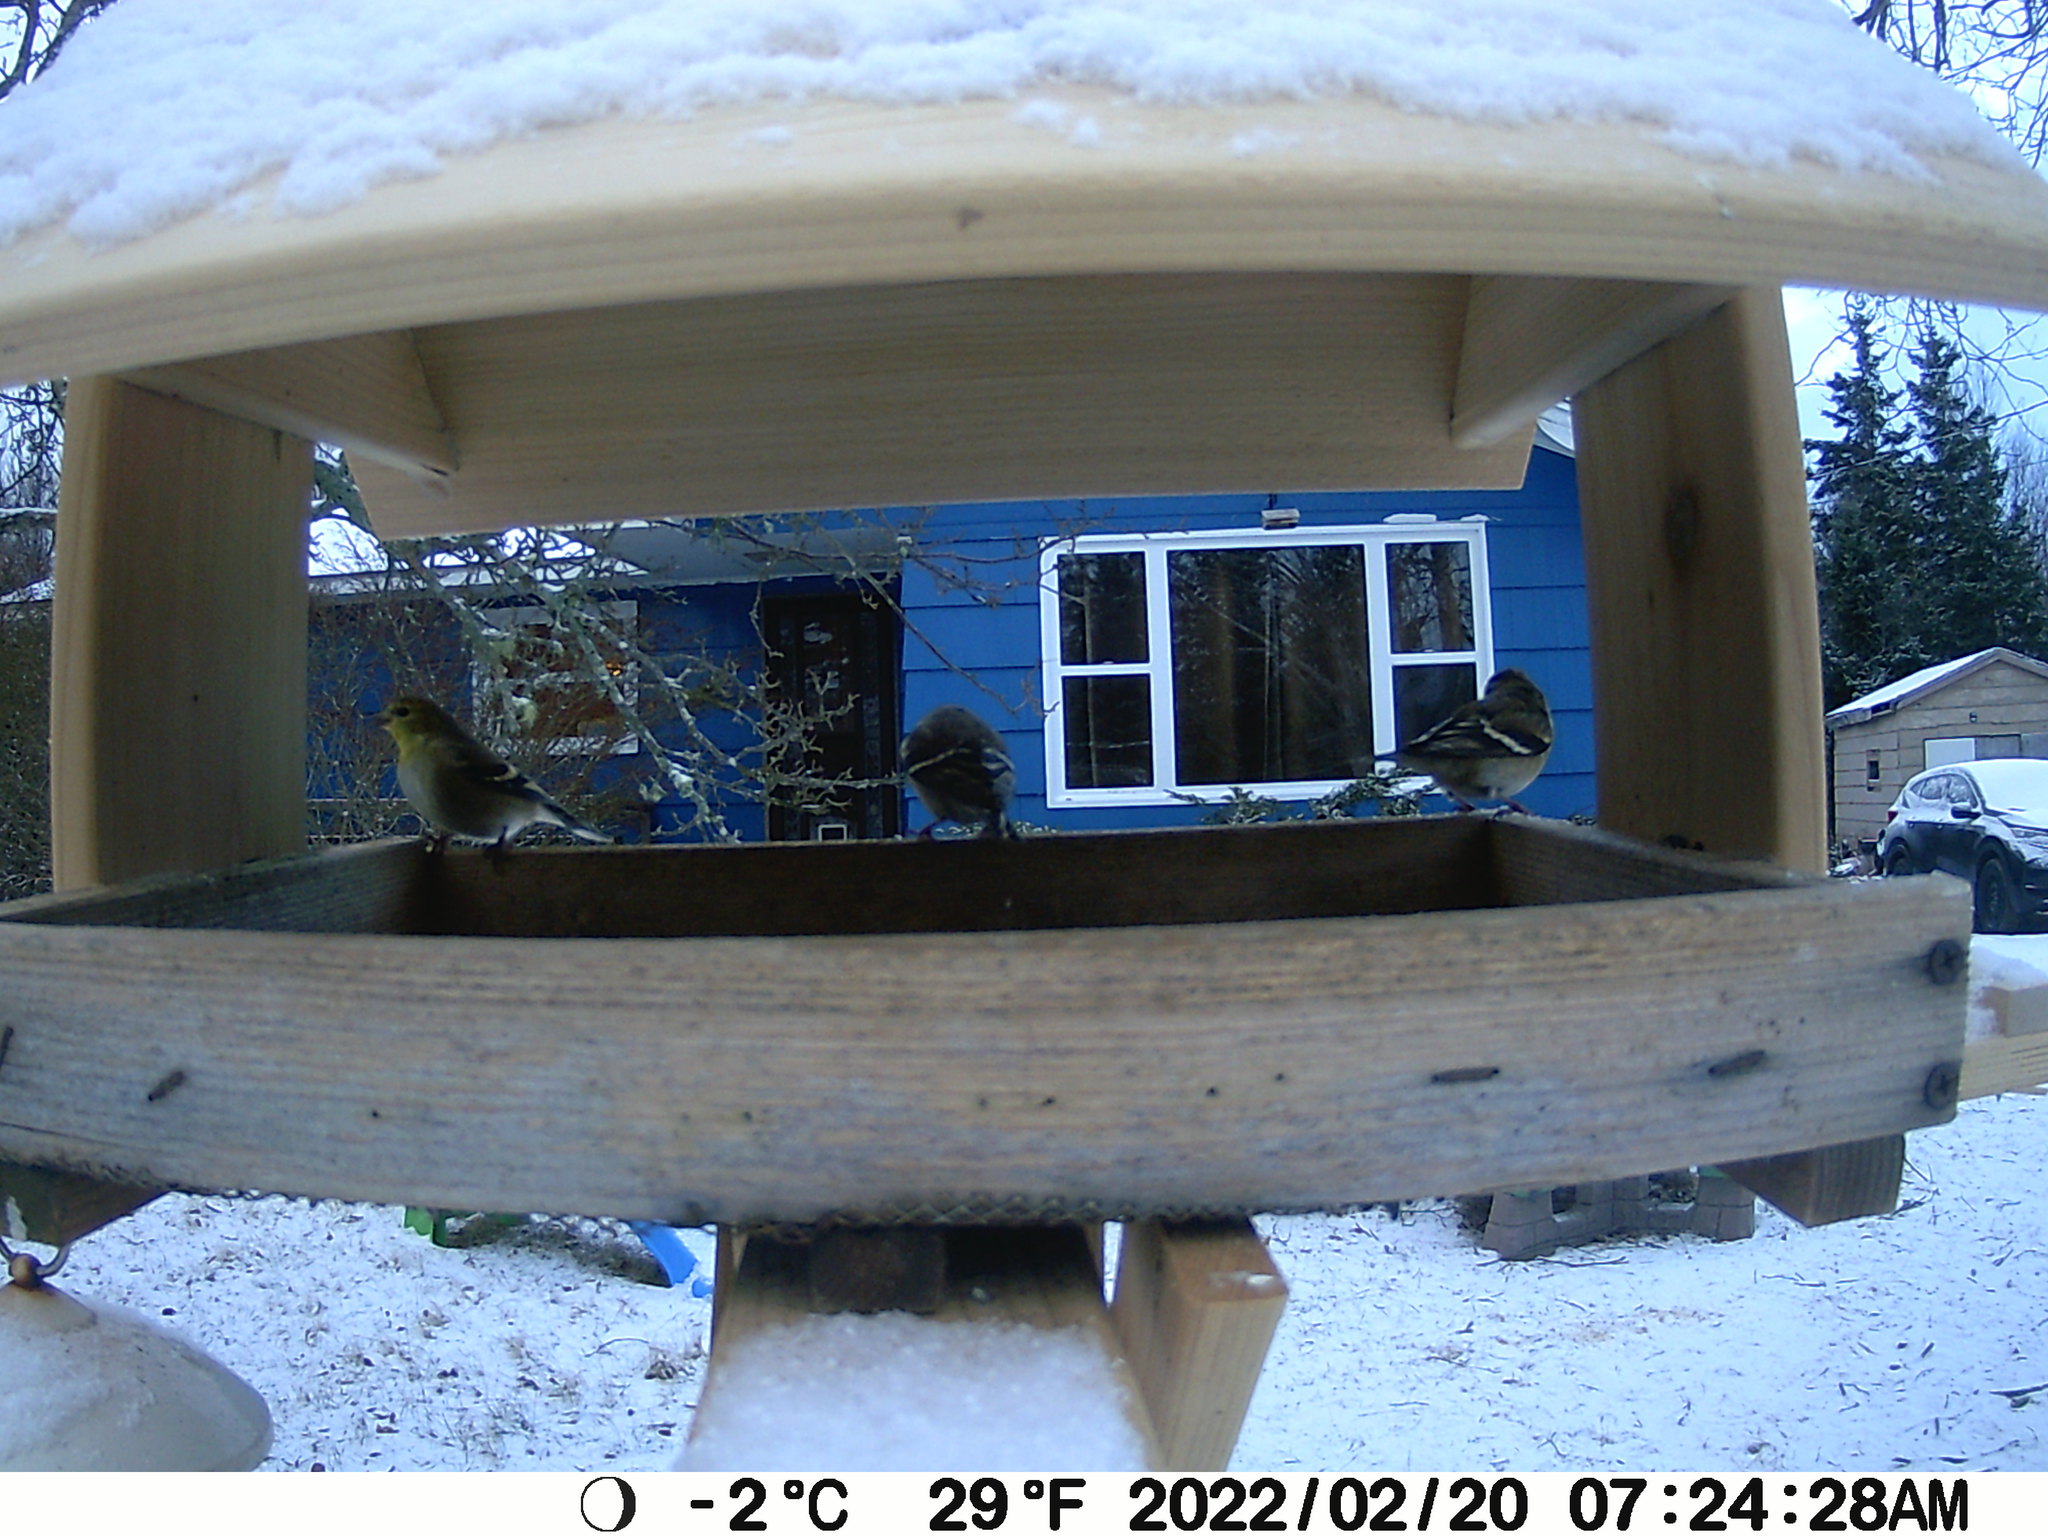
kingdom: Animalia
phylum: Chordata
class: Aves
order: Passeriformes
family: Fringillidae
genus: Spinus
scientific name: Spinus tristis
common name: American goldfinch
